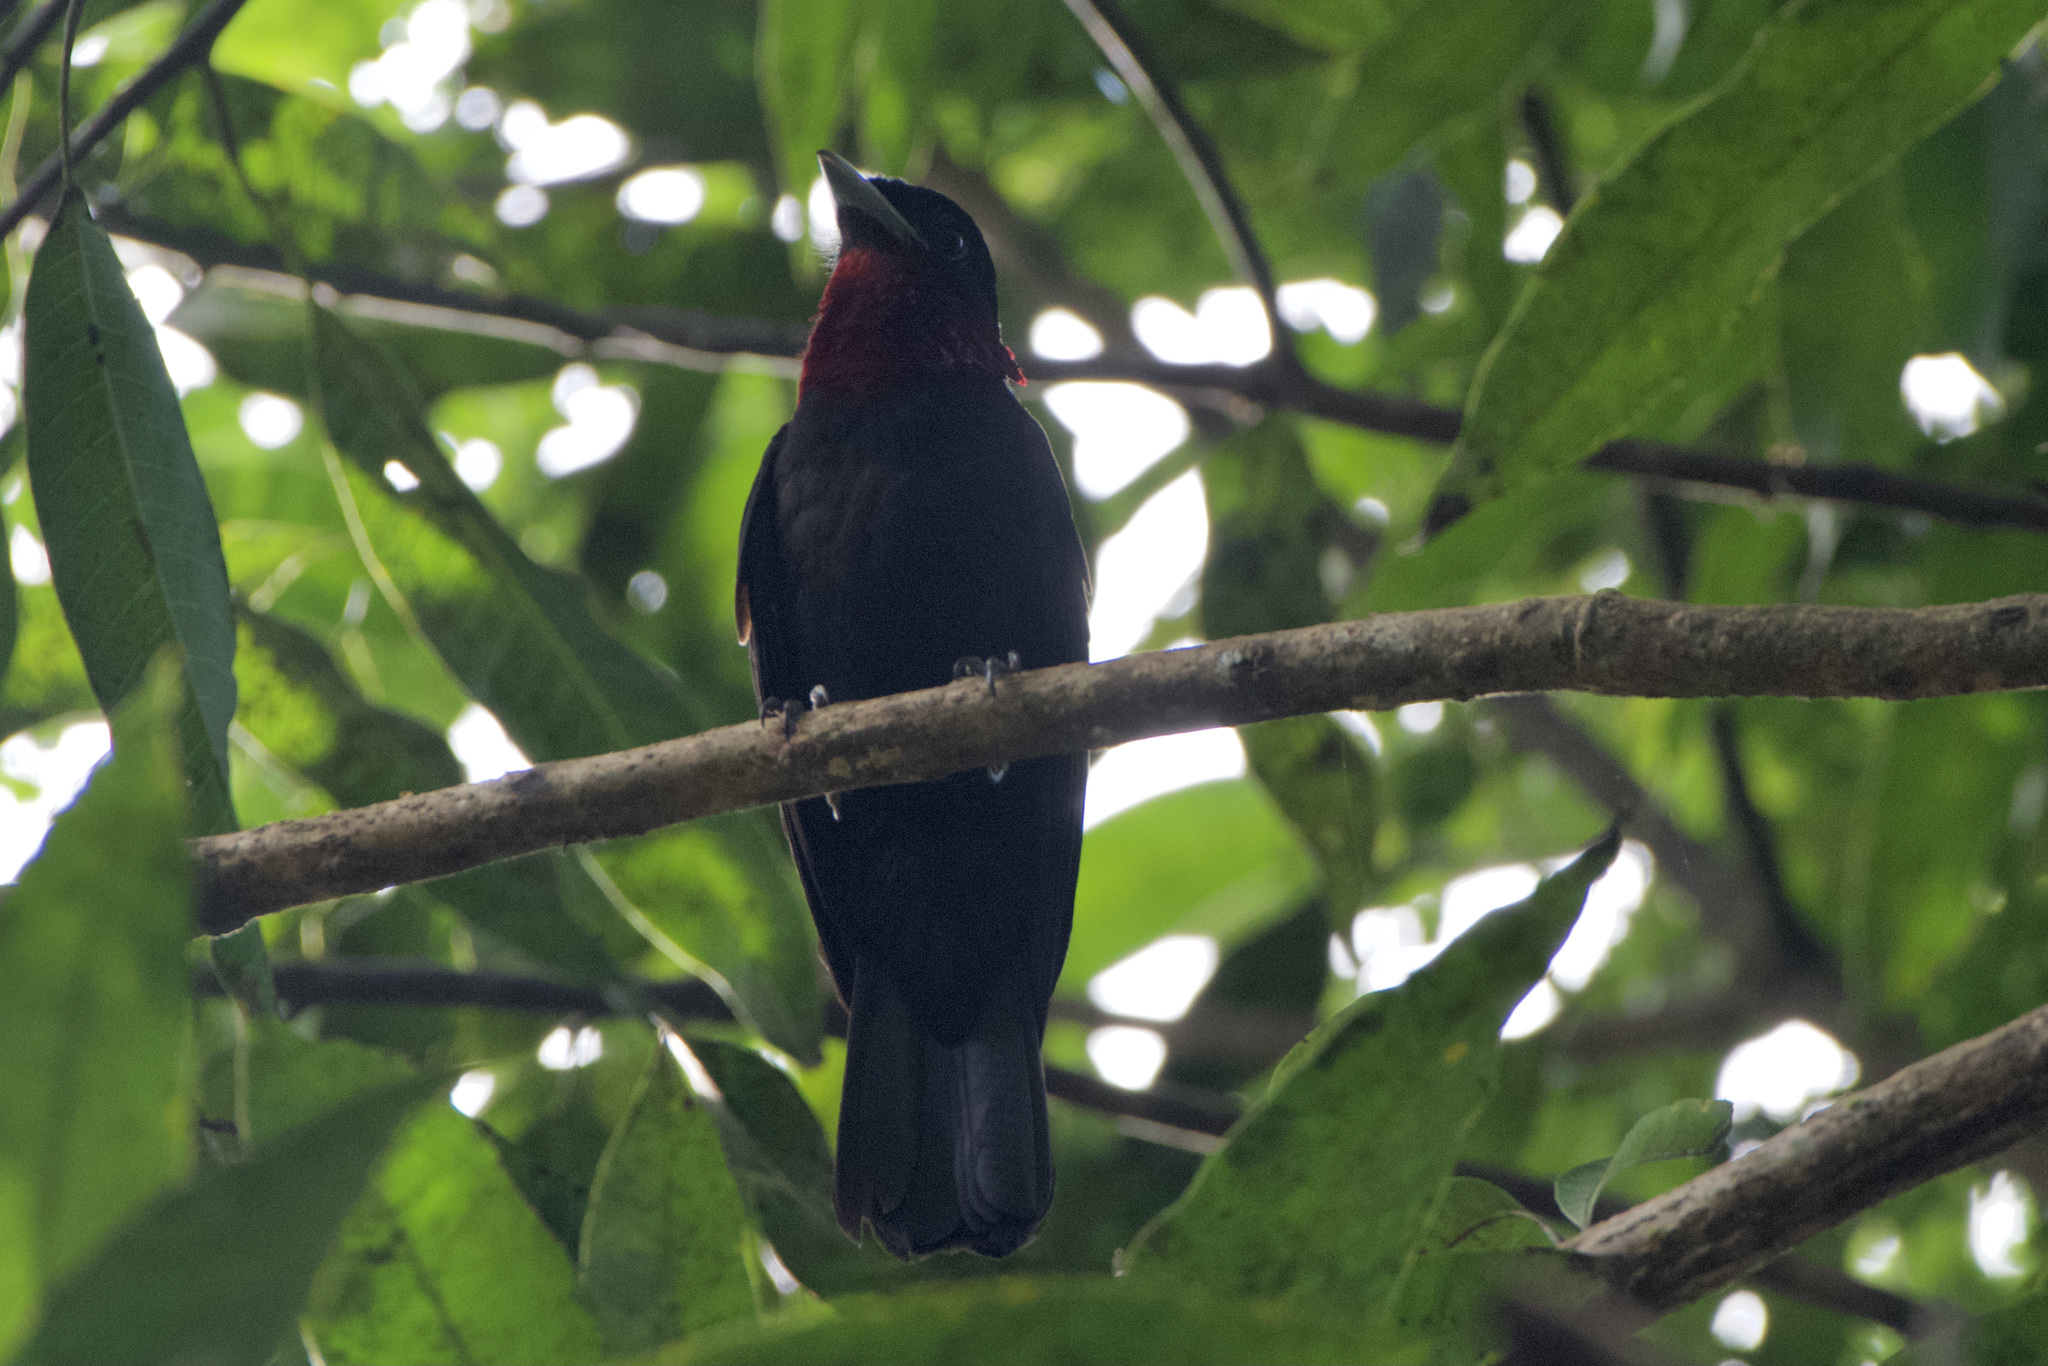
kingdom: Animalia
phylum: Chordata
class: Aves
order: Passeriformes
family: Cotingidae
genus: Querula
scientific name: Querula purpurata
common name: Purple-throated fruitcrow
